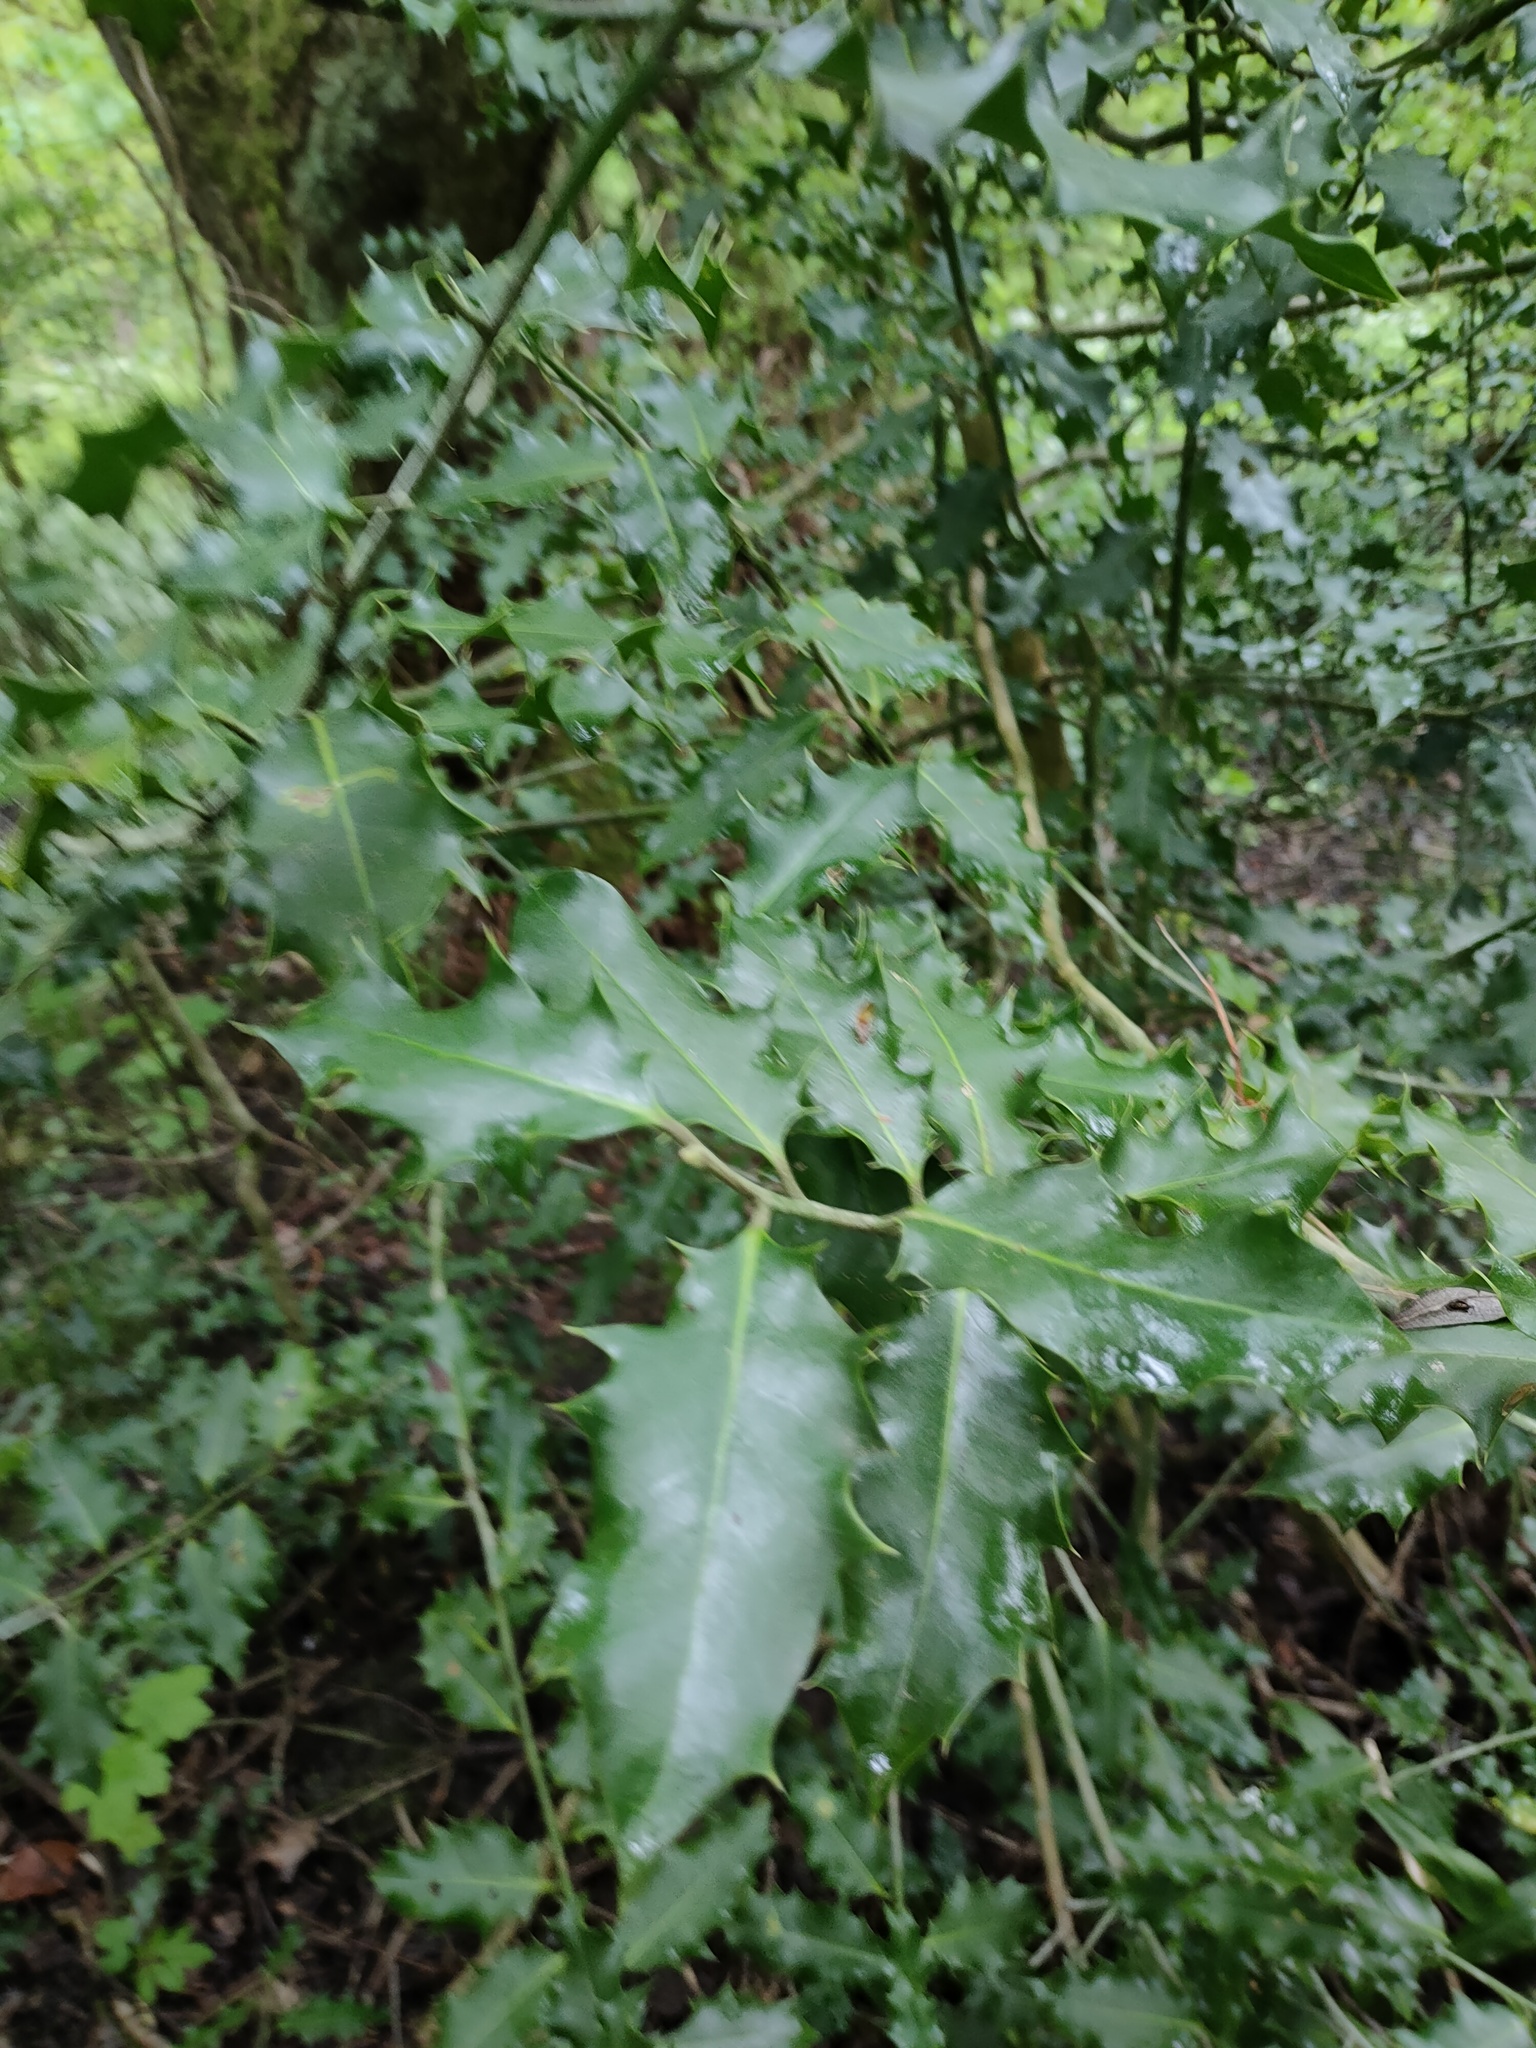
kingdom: Plantae
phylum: Tracheophyta
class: Magnoliopsida
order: Aquifoliales
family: Aquifoliaceae
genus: Ilex
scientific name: Ilex aquifolium
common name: English holly
